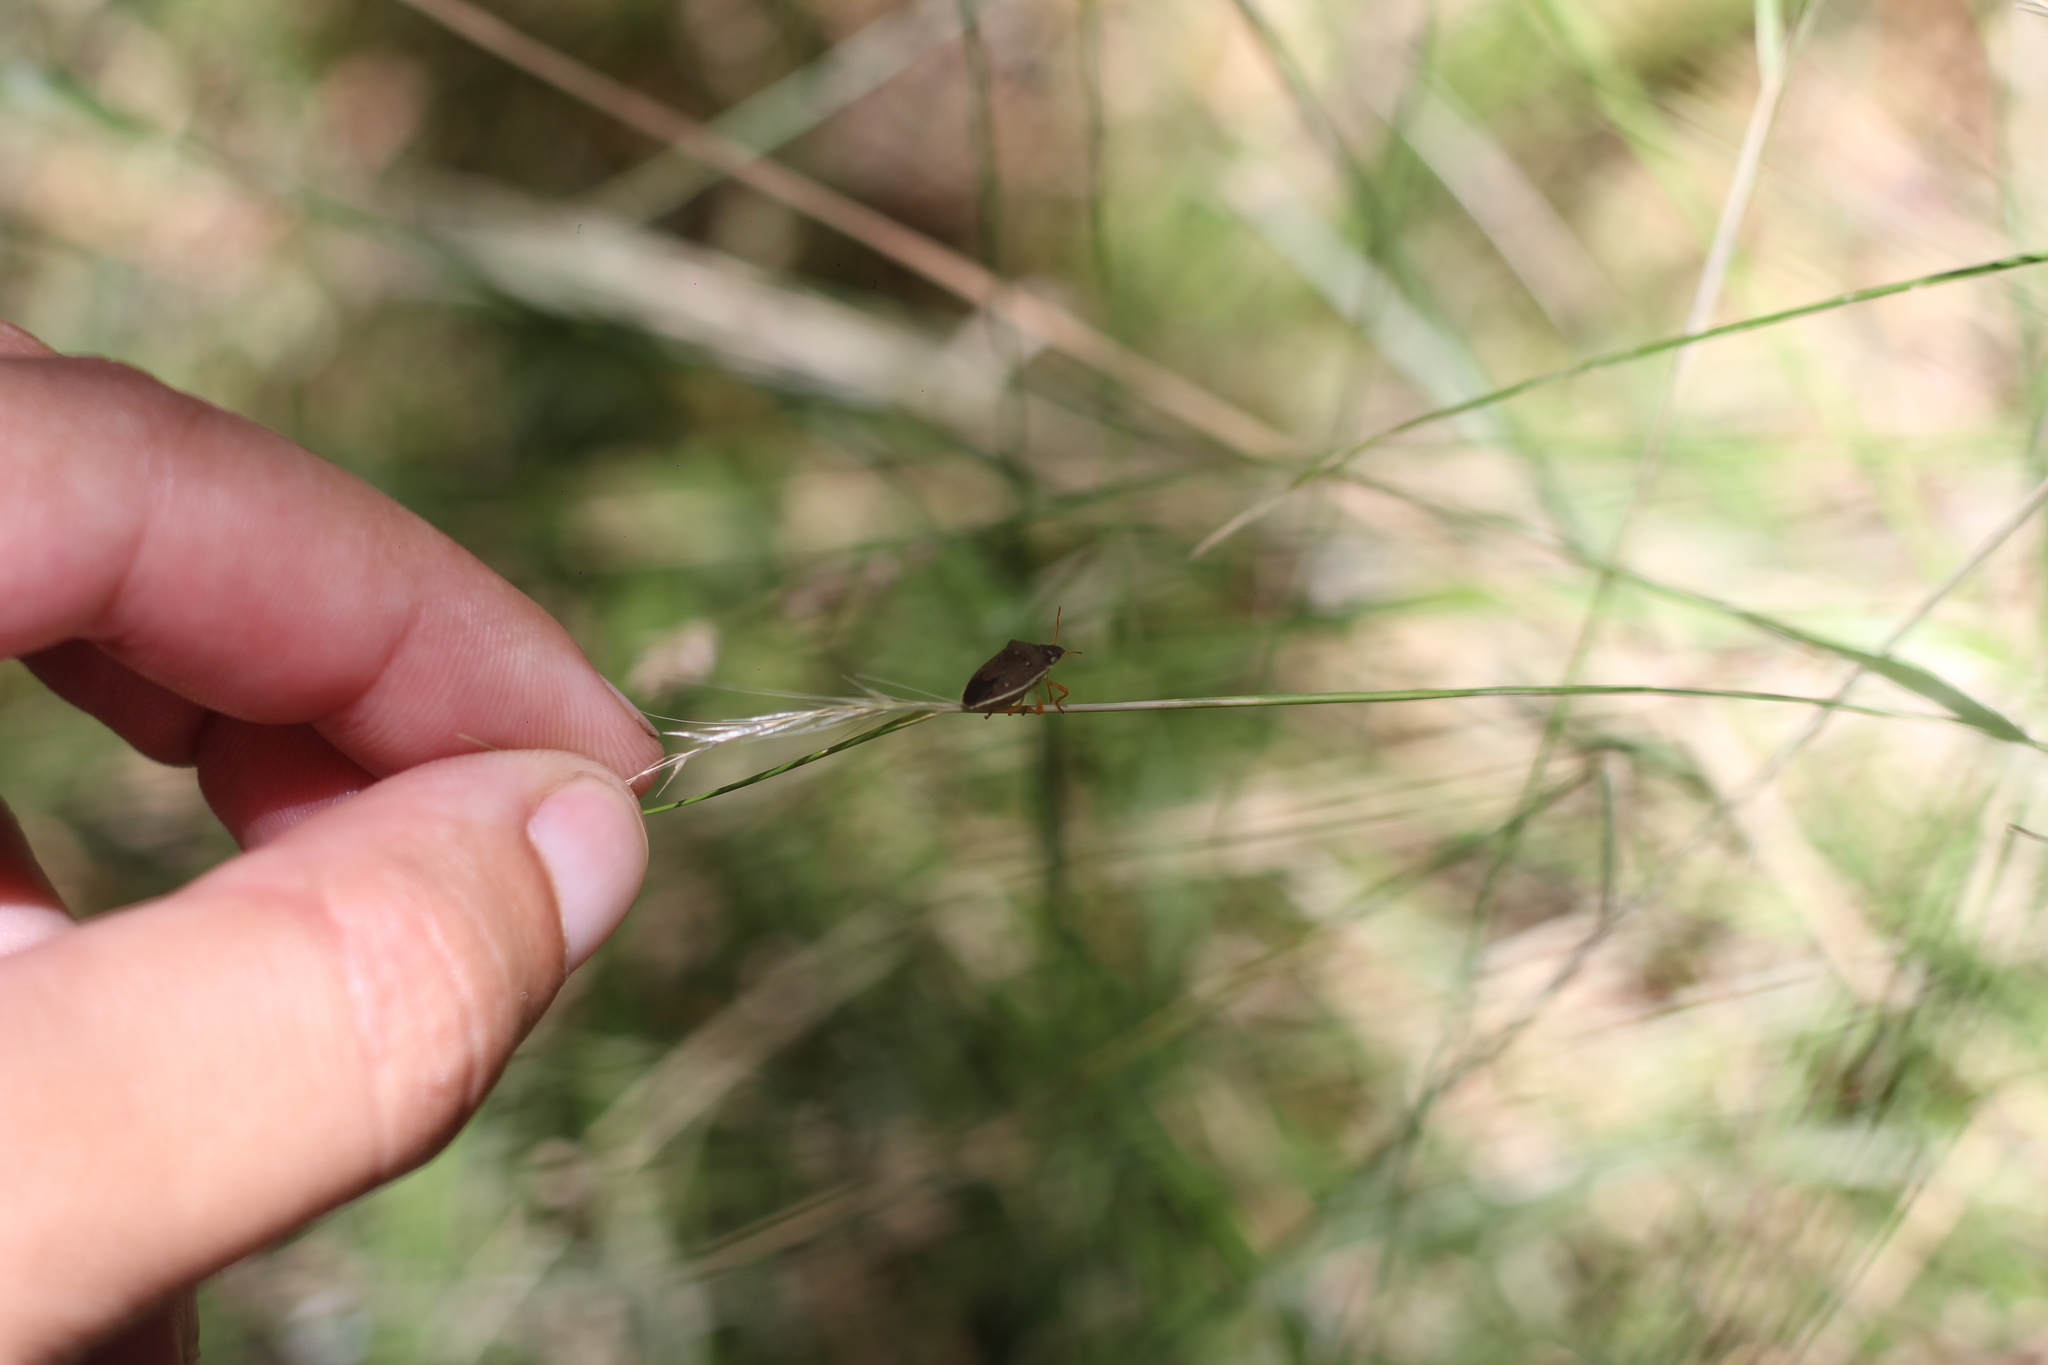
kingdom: Animalia
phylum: Arthropoda
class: Insecta
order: Hemiptera
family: Pentatomidae
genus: Mormidea
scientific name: Mormidea
